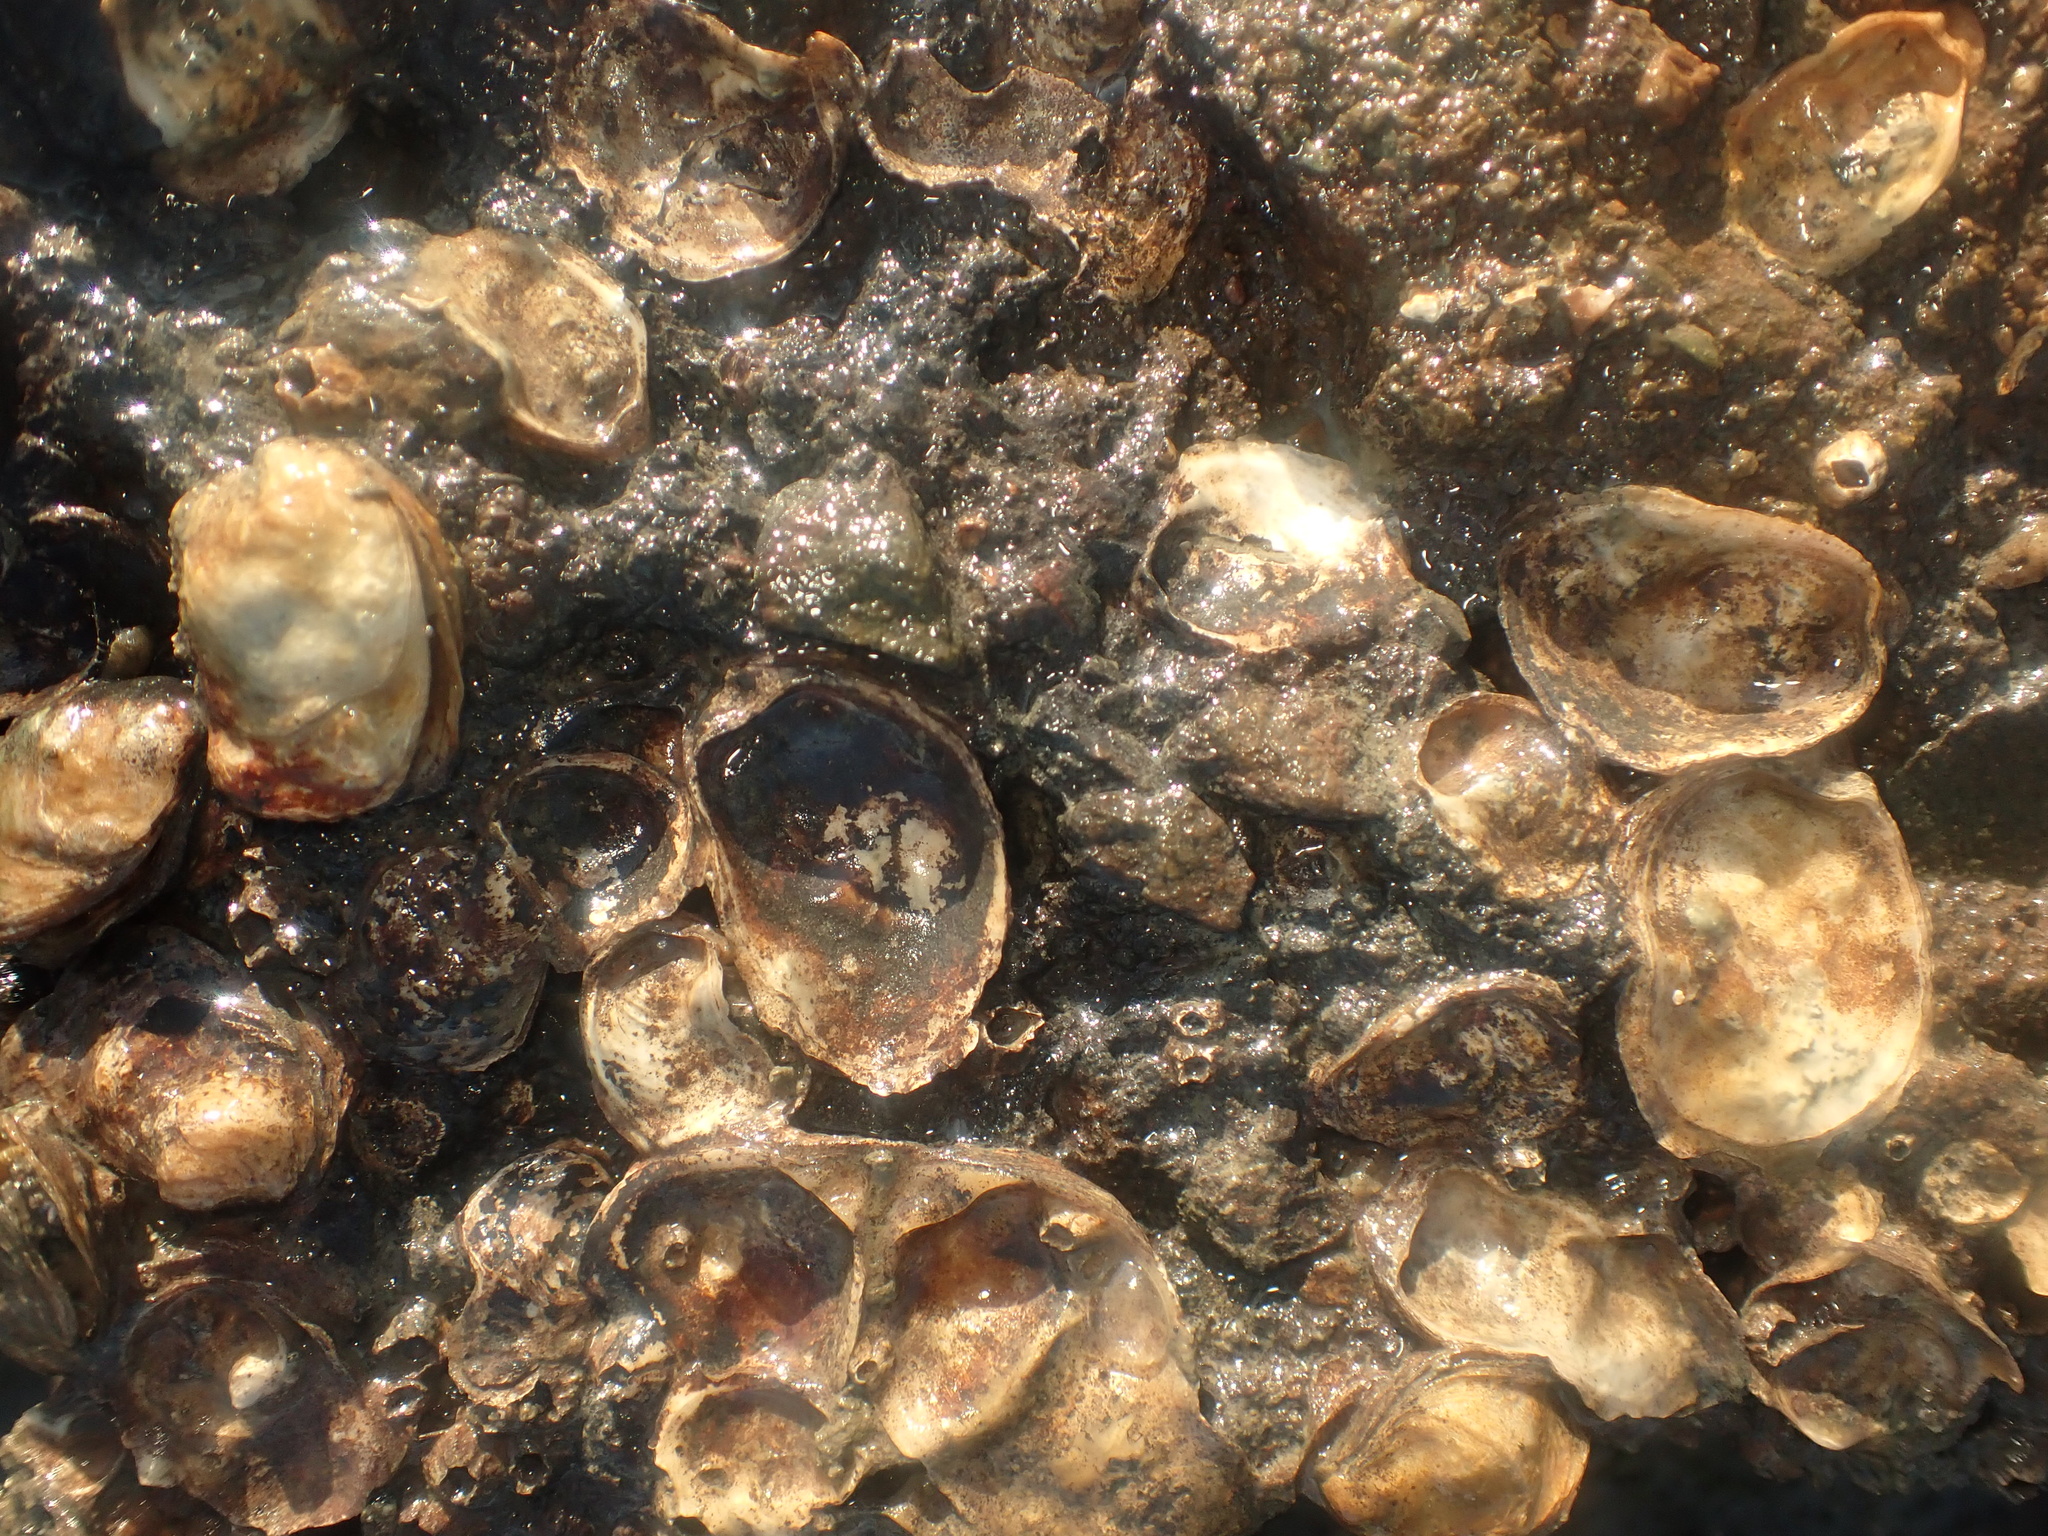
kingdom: Animalia
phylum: Mollusca
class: Bivalvia
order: Ostreida
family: Ostreidae
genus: Ostrea
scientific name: Ostrea lurida
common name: Olympia flat oyster
